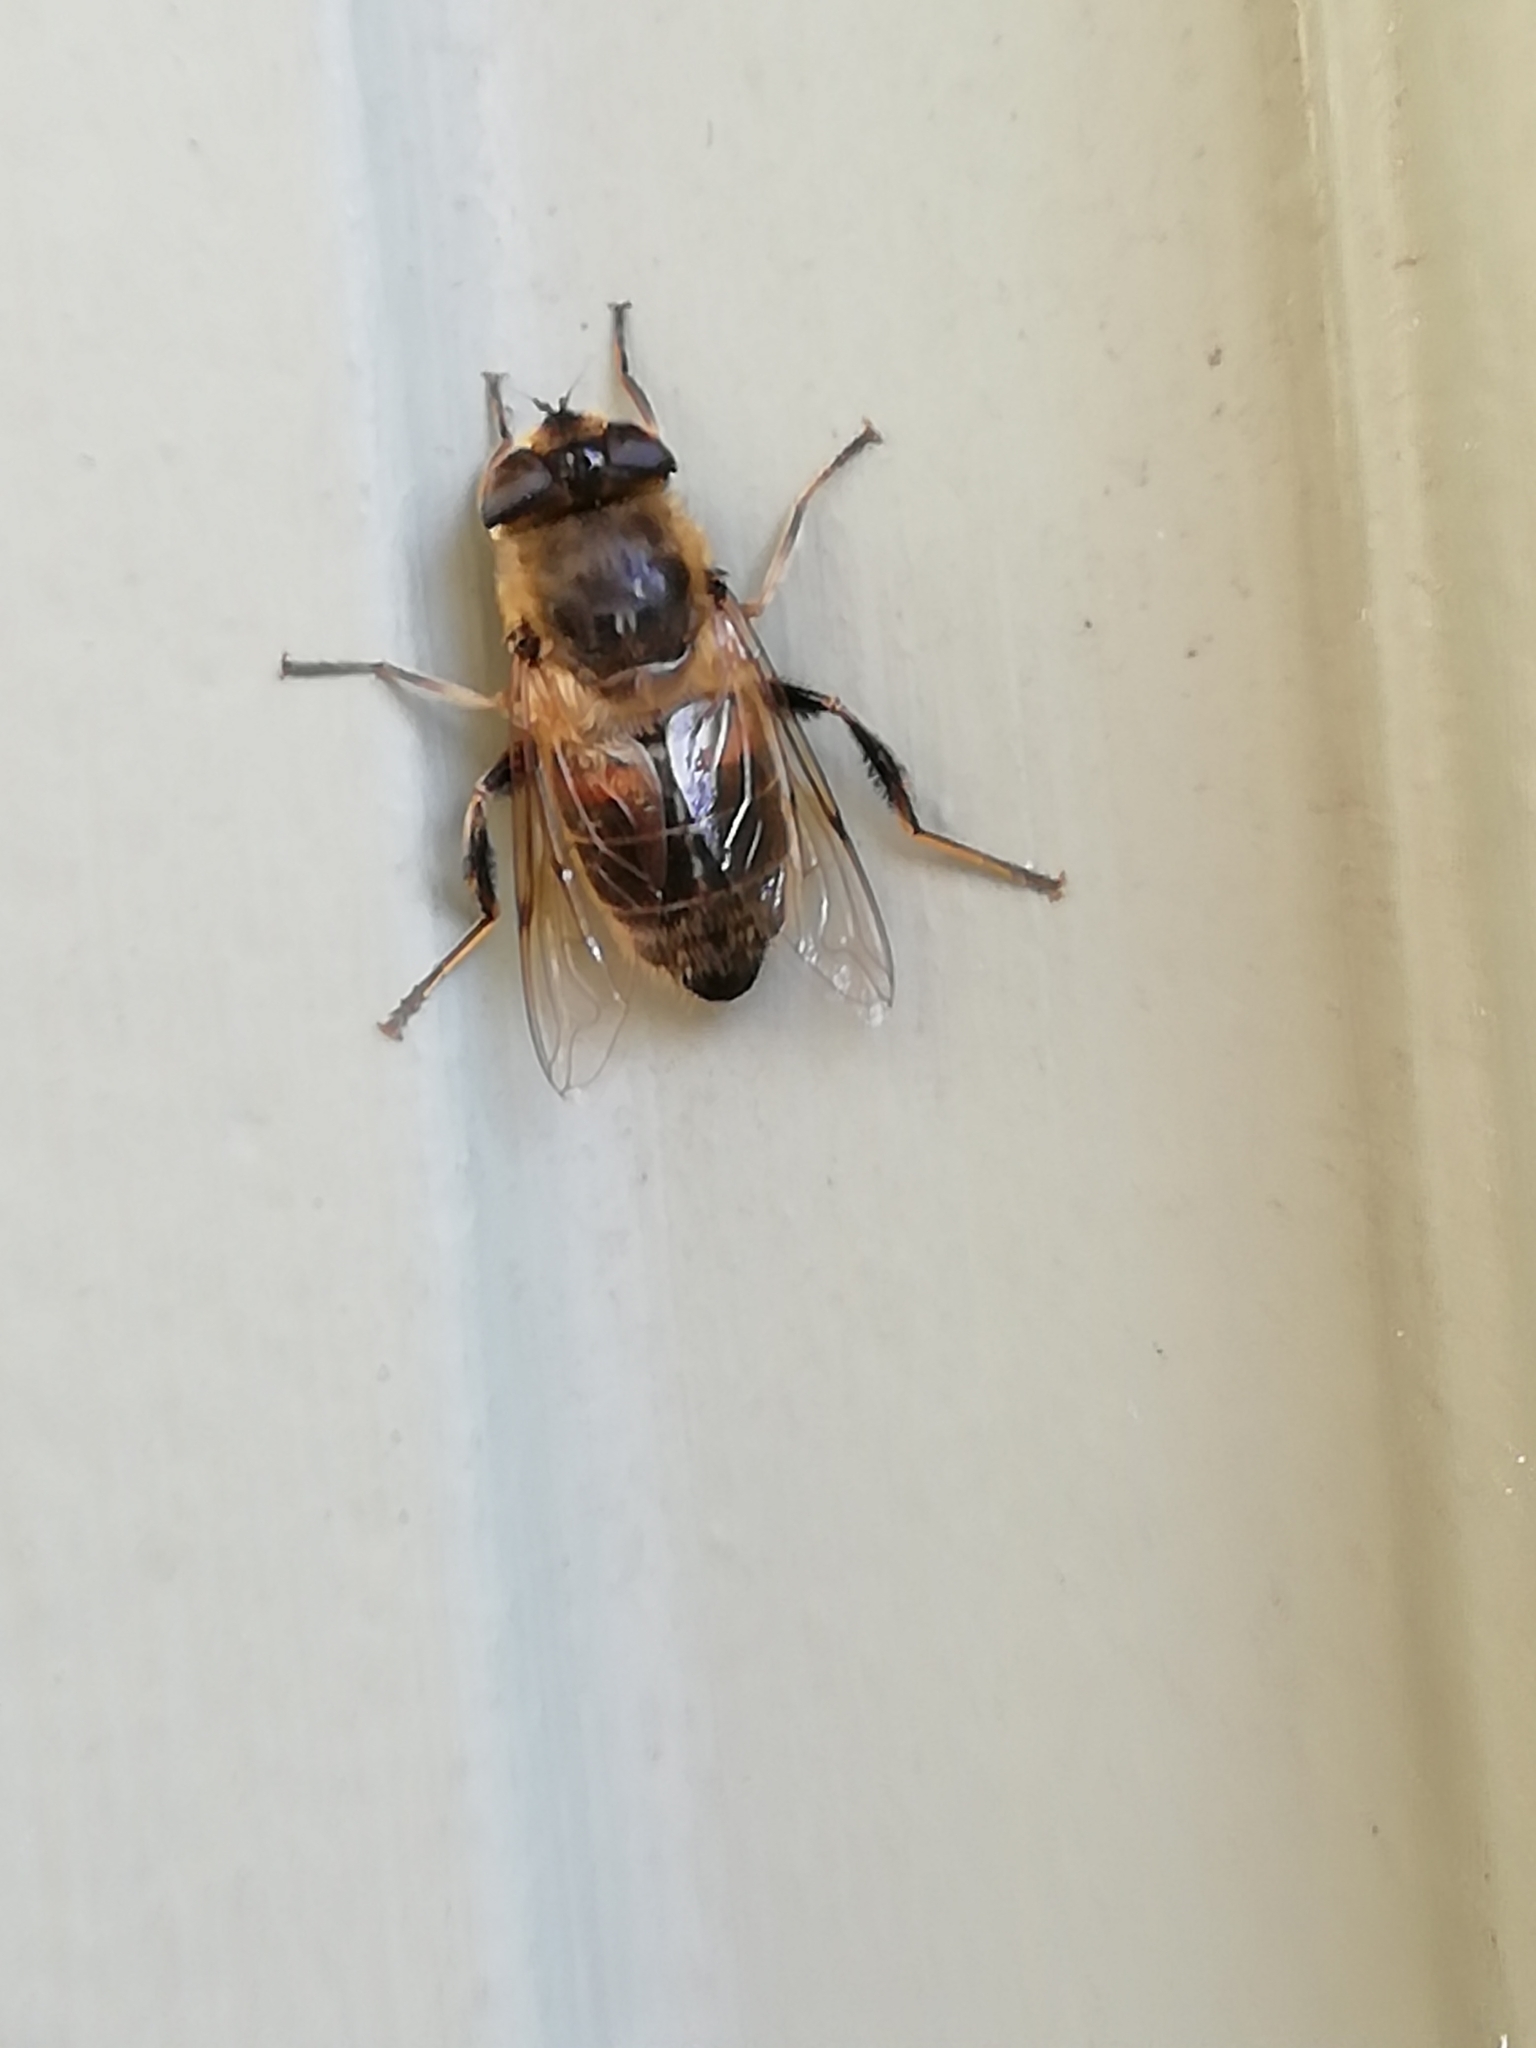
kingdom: Animalia
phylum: Arthropoda
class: Insecta
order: Diptera
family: Syrphidae
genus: Eristalis
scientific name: Eristalis tenax
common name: Drone fly
